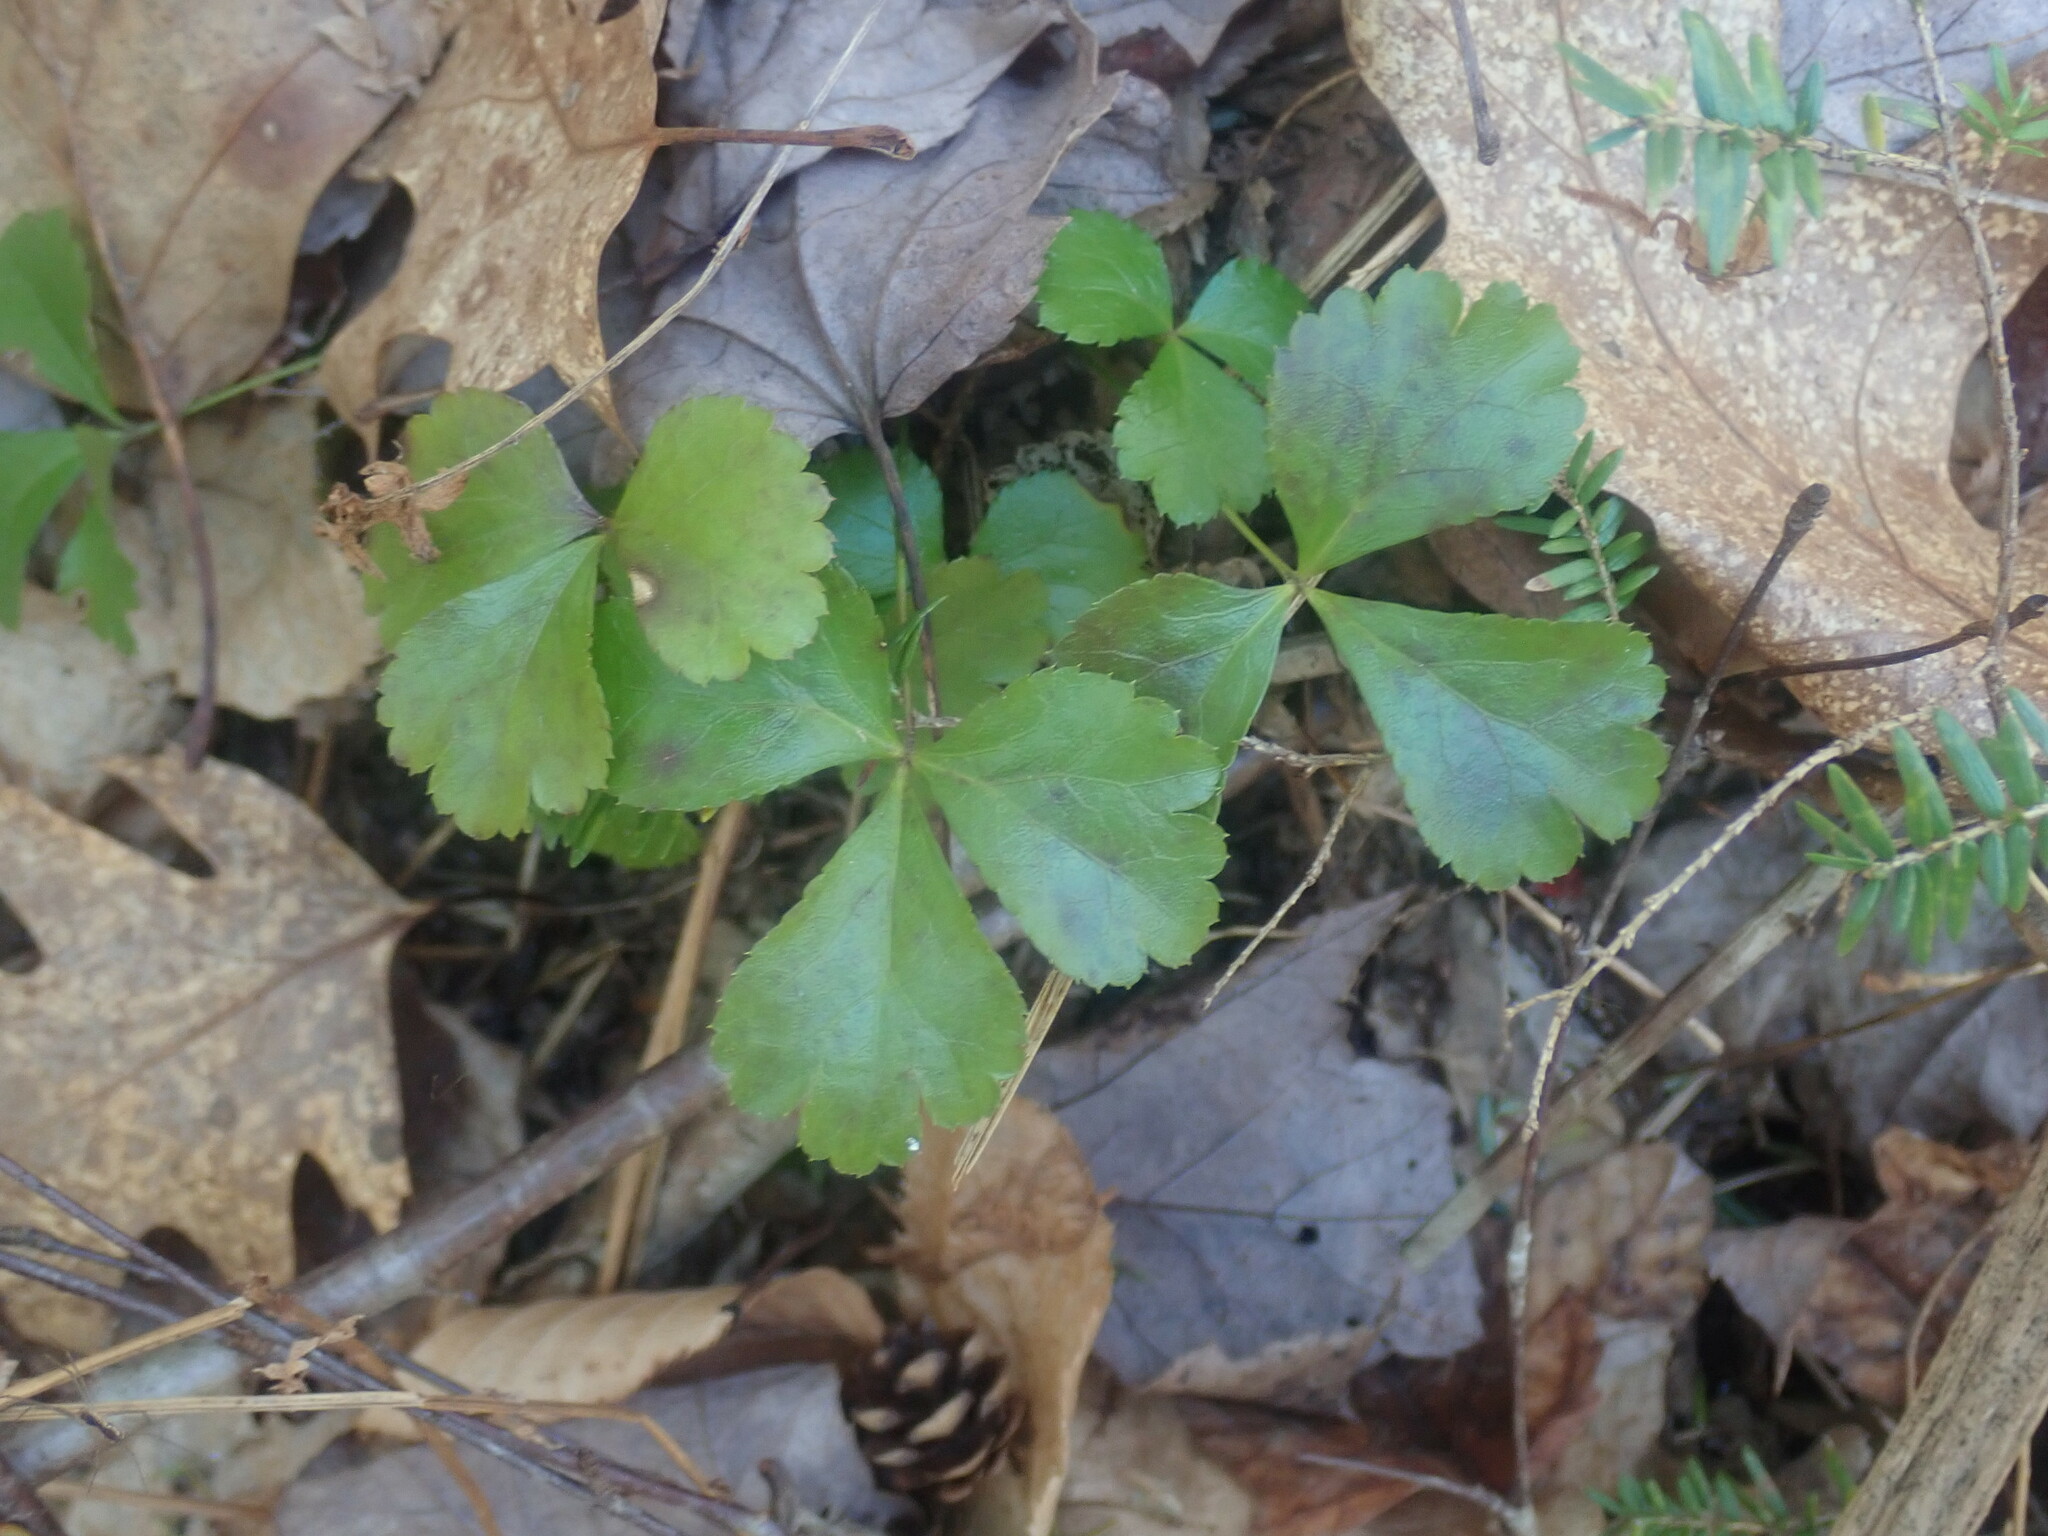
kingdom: Plantae
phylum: Tracheophyta
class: Magnoliopsida
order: Ranunculales
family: Ranunculaceae
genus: Coptis
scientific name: Coptis trifolia
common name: Canker-root
